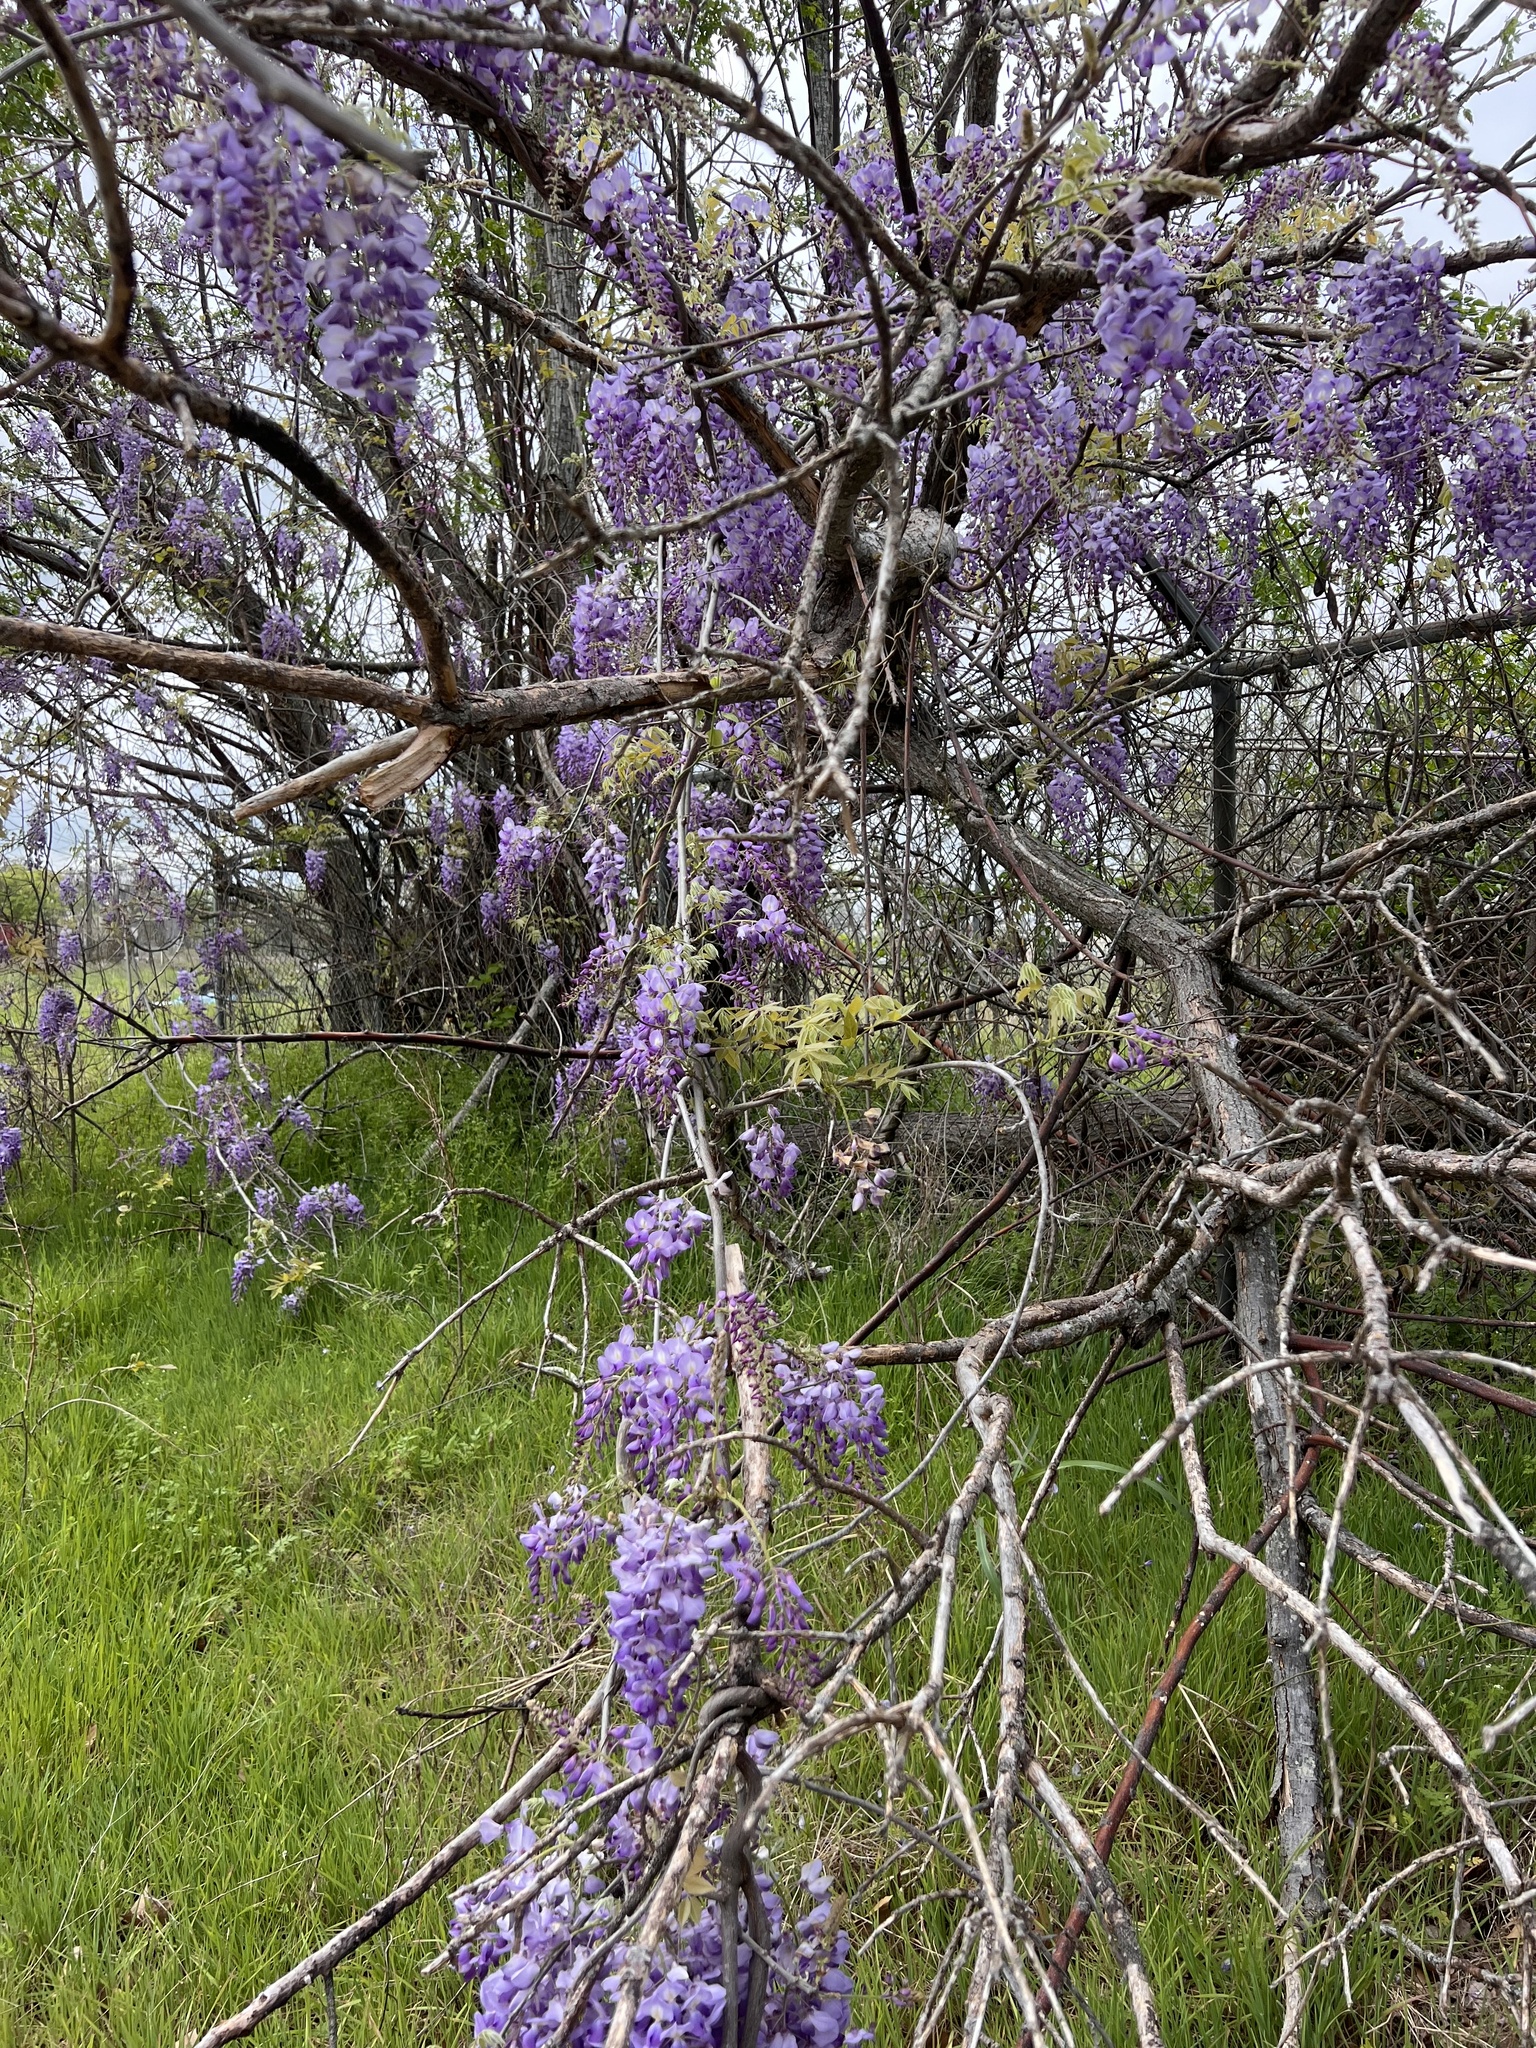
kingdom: Plantae
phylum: Tracheophyta
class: Magnoliopsida
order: Fabales
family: Fabaceae
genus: Wisteria
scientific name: Wisteria sinensis
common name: Chinese wisteria
